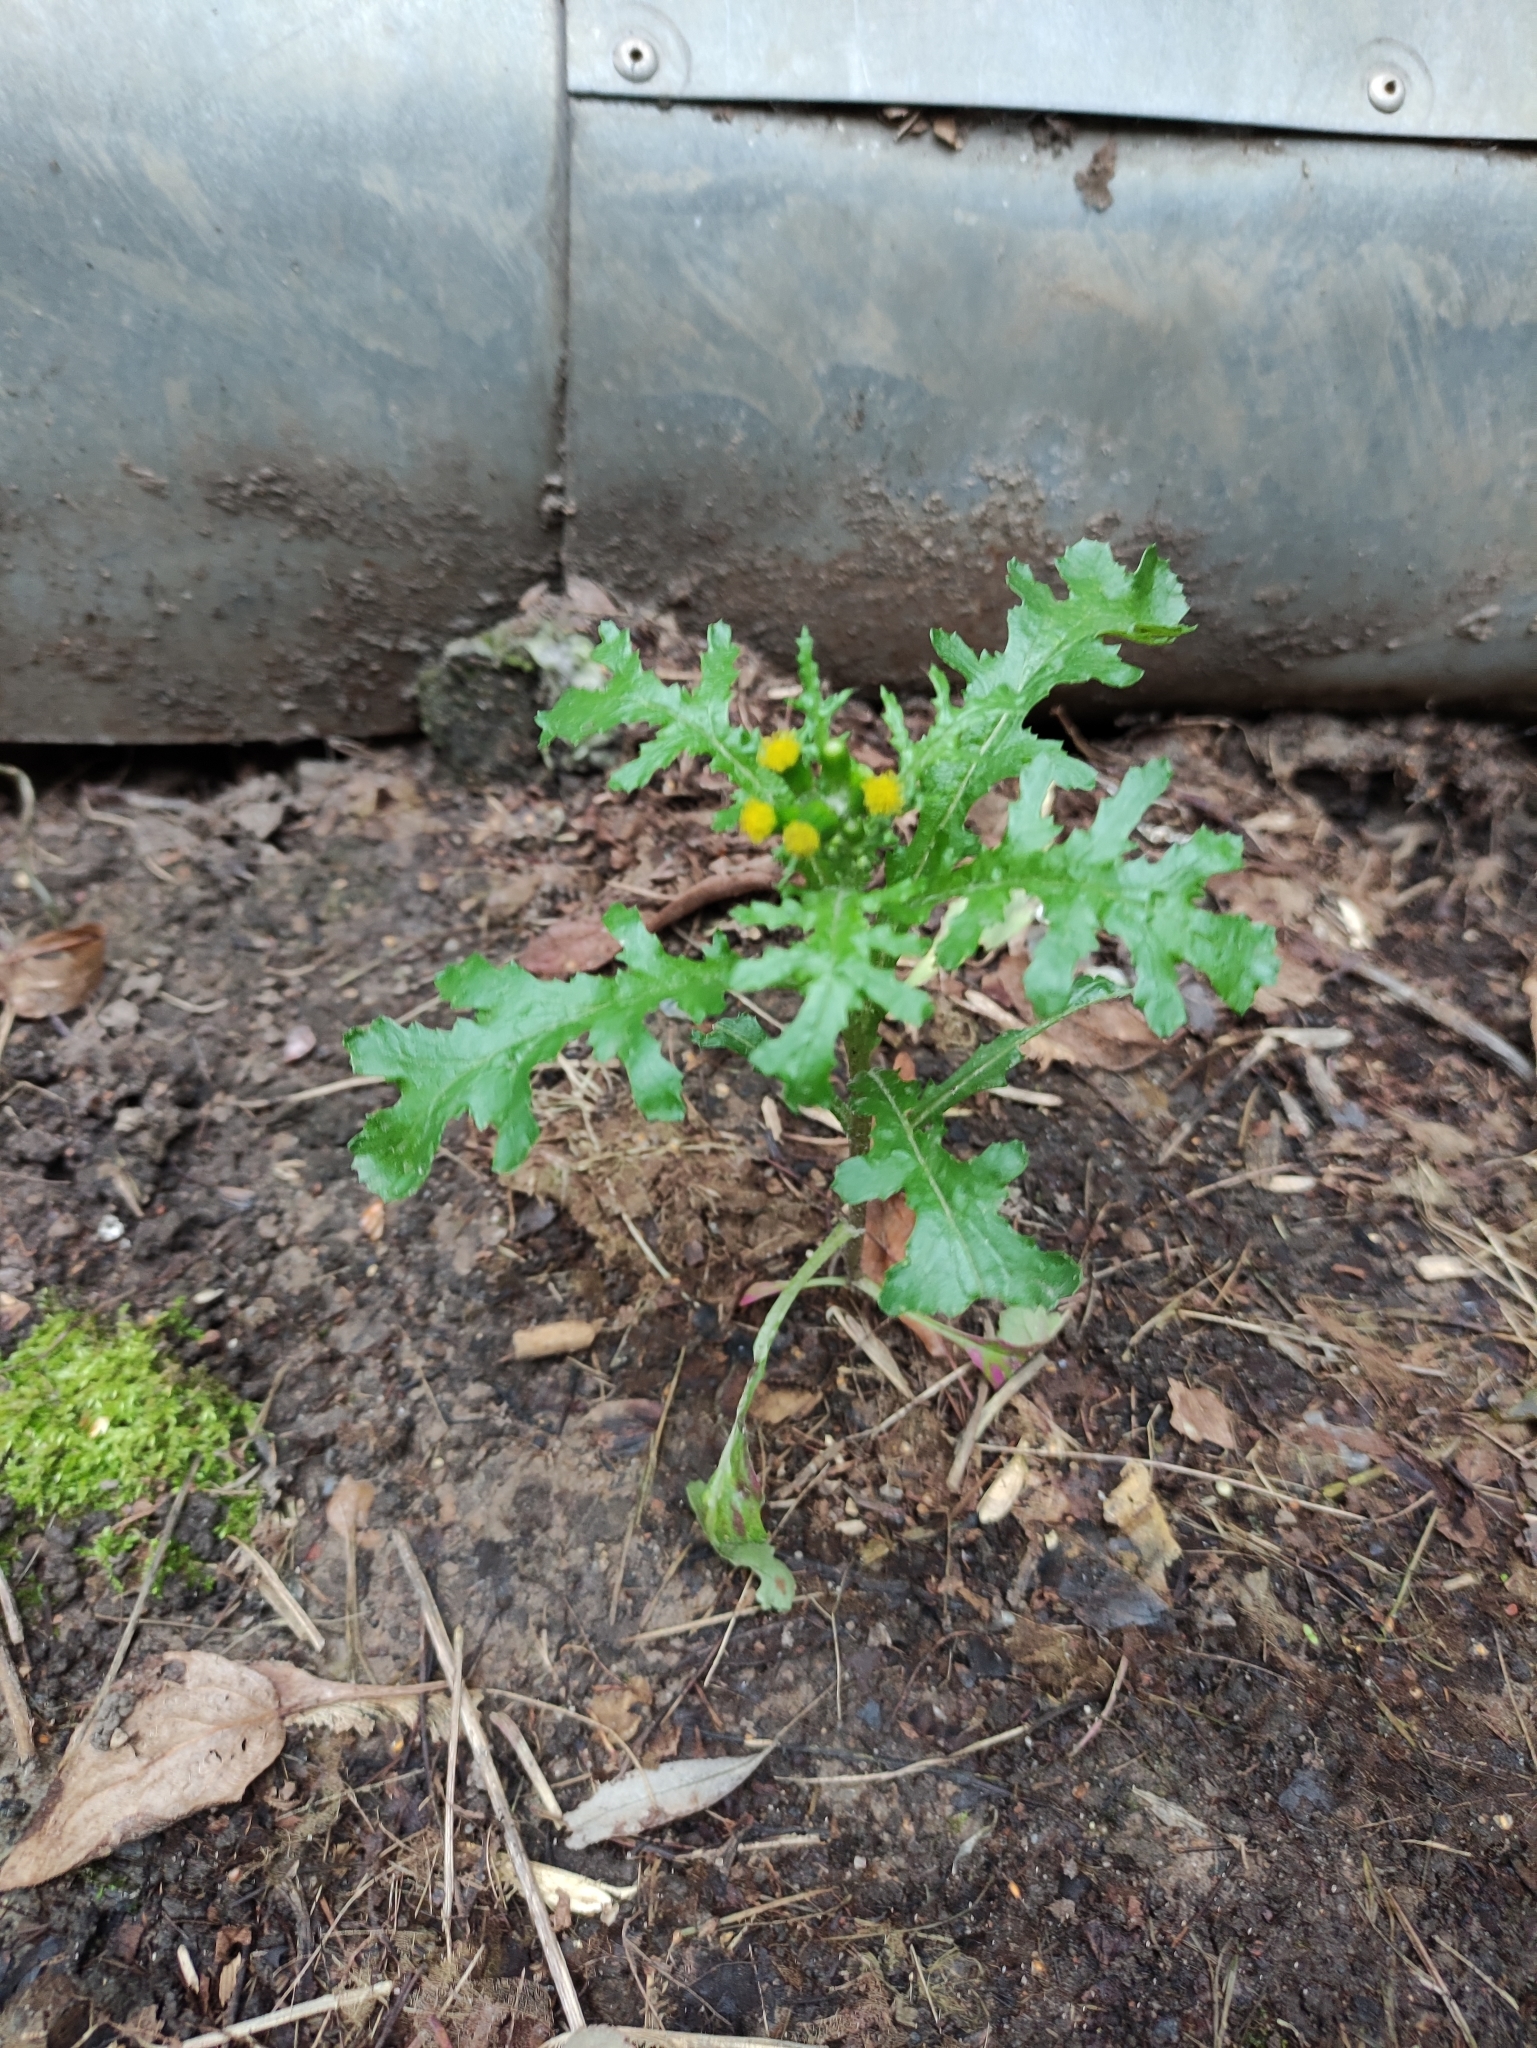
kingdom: Plantae
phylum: Tracheophyta
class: Magnoliopsida
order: Asterales
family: Asteraceae
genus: Senecio
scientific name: Senecio vulgaris
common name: Old-man-in-the-spring
